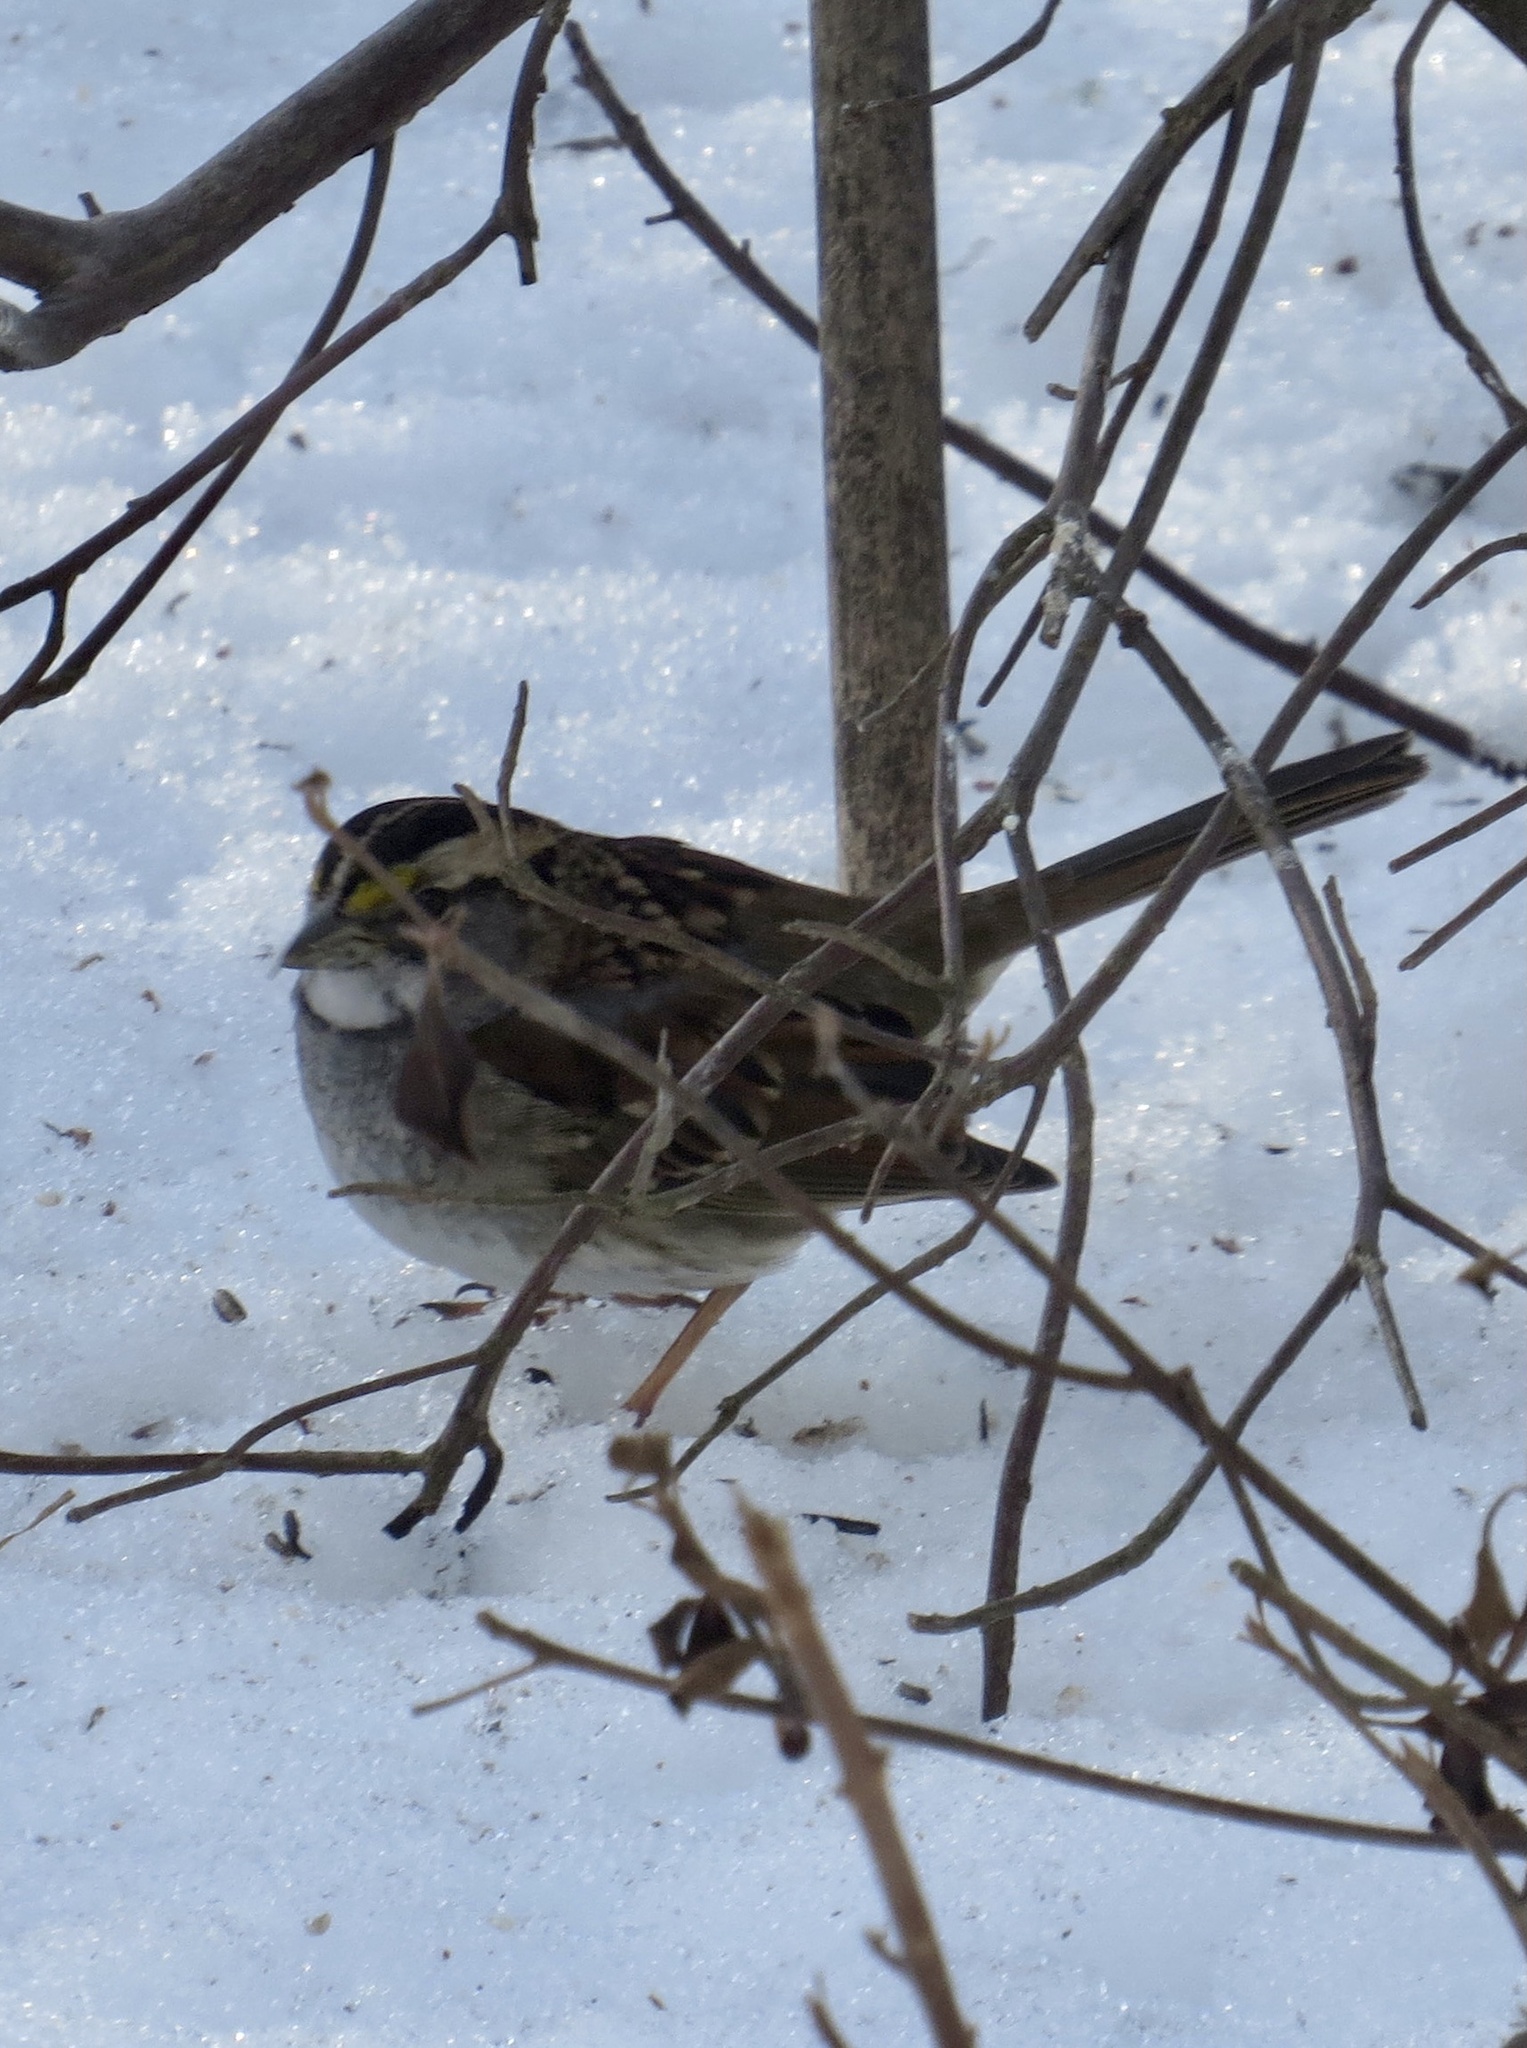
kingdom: Animalia
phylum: Chordata
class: Aves
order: Passeriformes
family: Passerellidae
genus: Zonotrichia
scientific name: Zonotrichia albicollis
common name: White-throated sparrow
